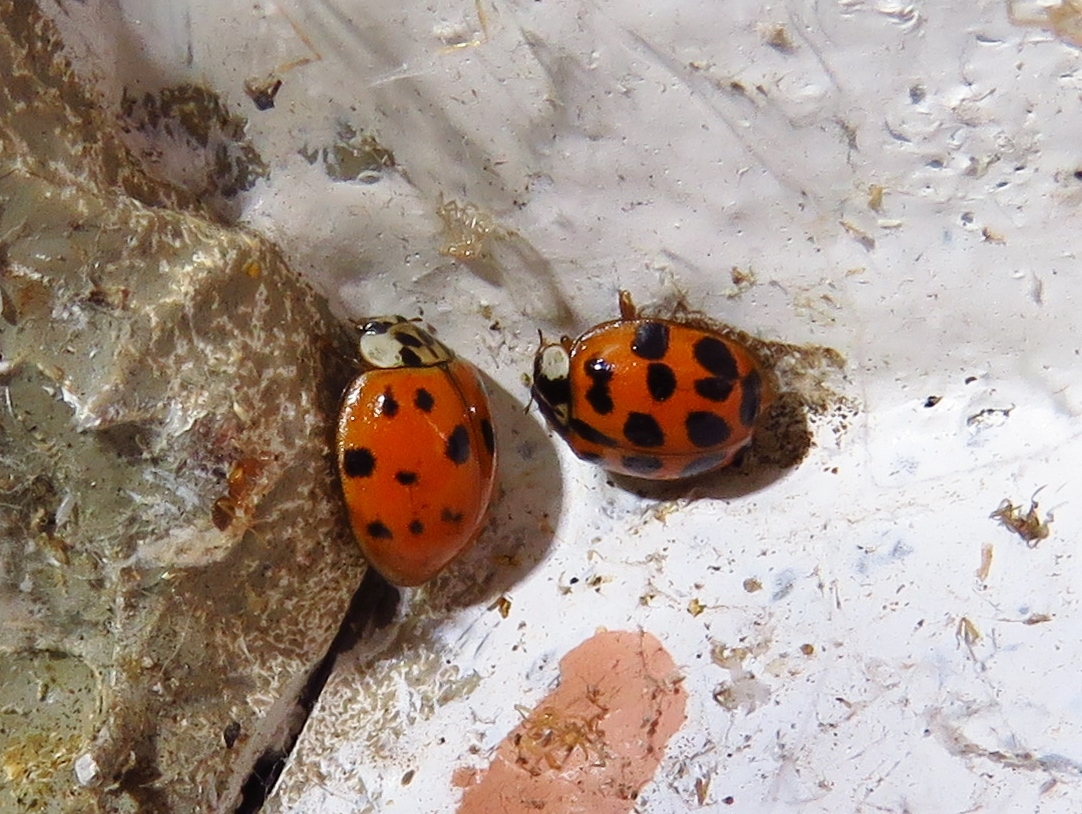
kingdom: Animalia
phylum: Arthropoda
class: Insecta
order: Coleoptera
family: Coccinellidae
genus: Harmonia
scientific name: Harmonia axyridis
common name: Harlequin ladybird
